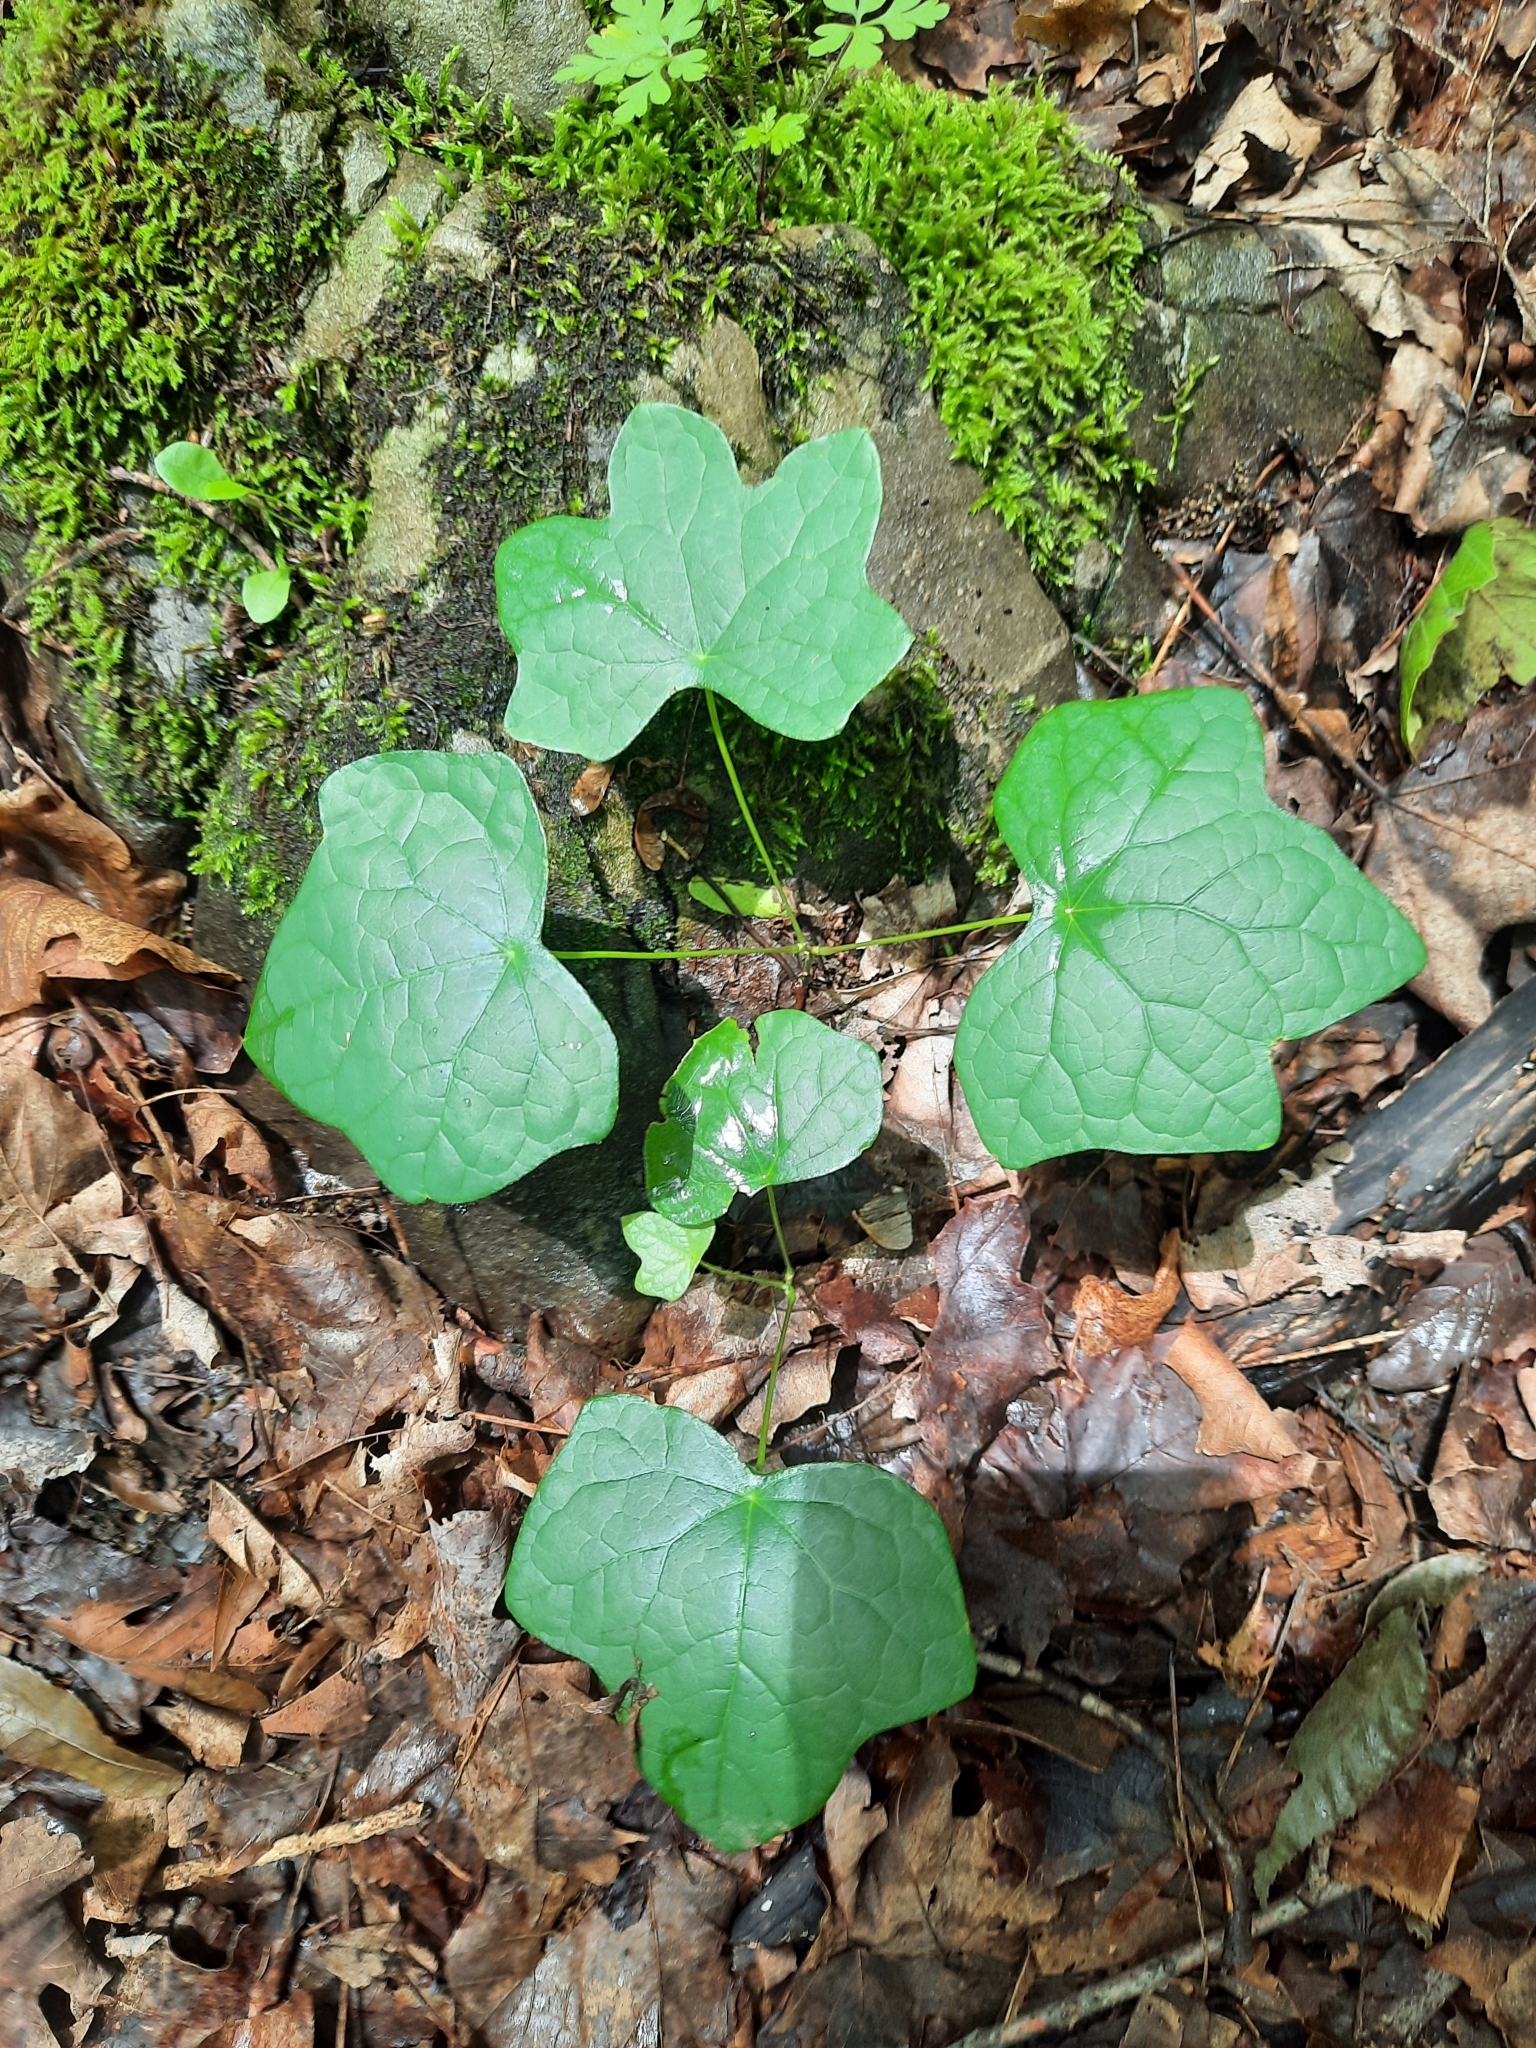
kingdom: Plantae
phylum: Tracheophyta
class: Magnoliopsida
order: Ranunculales
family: Menispermaceae
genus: Menispermum
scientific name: Menispermum canadense
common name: Moonseed
